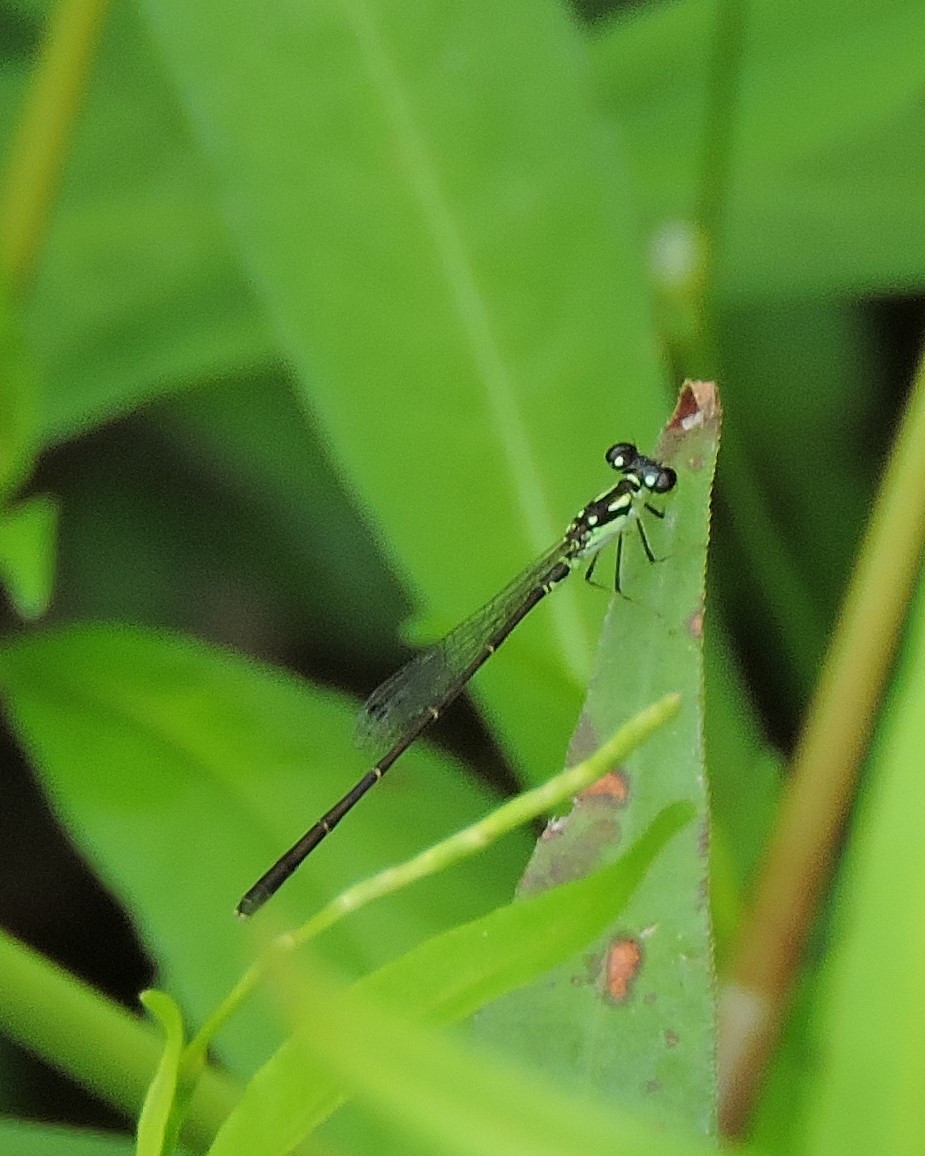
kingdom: Animalia
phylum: Arthropoda
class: Insecta
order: Odonata
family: Coenagrionidae
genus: Ischnura
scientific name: Ischnura posita
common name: Fragile forktail
